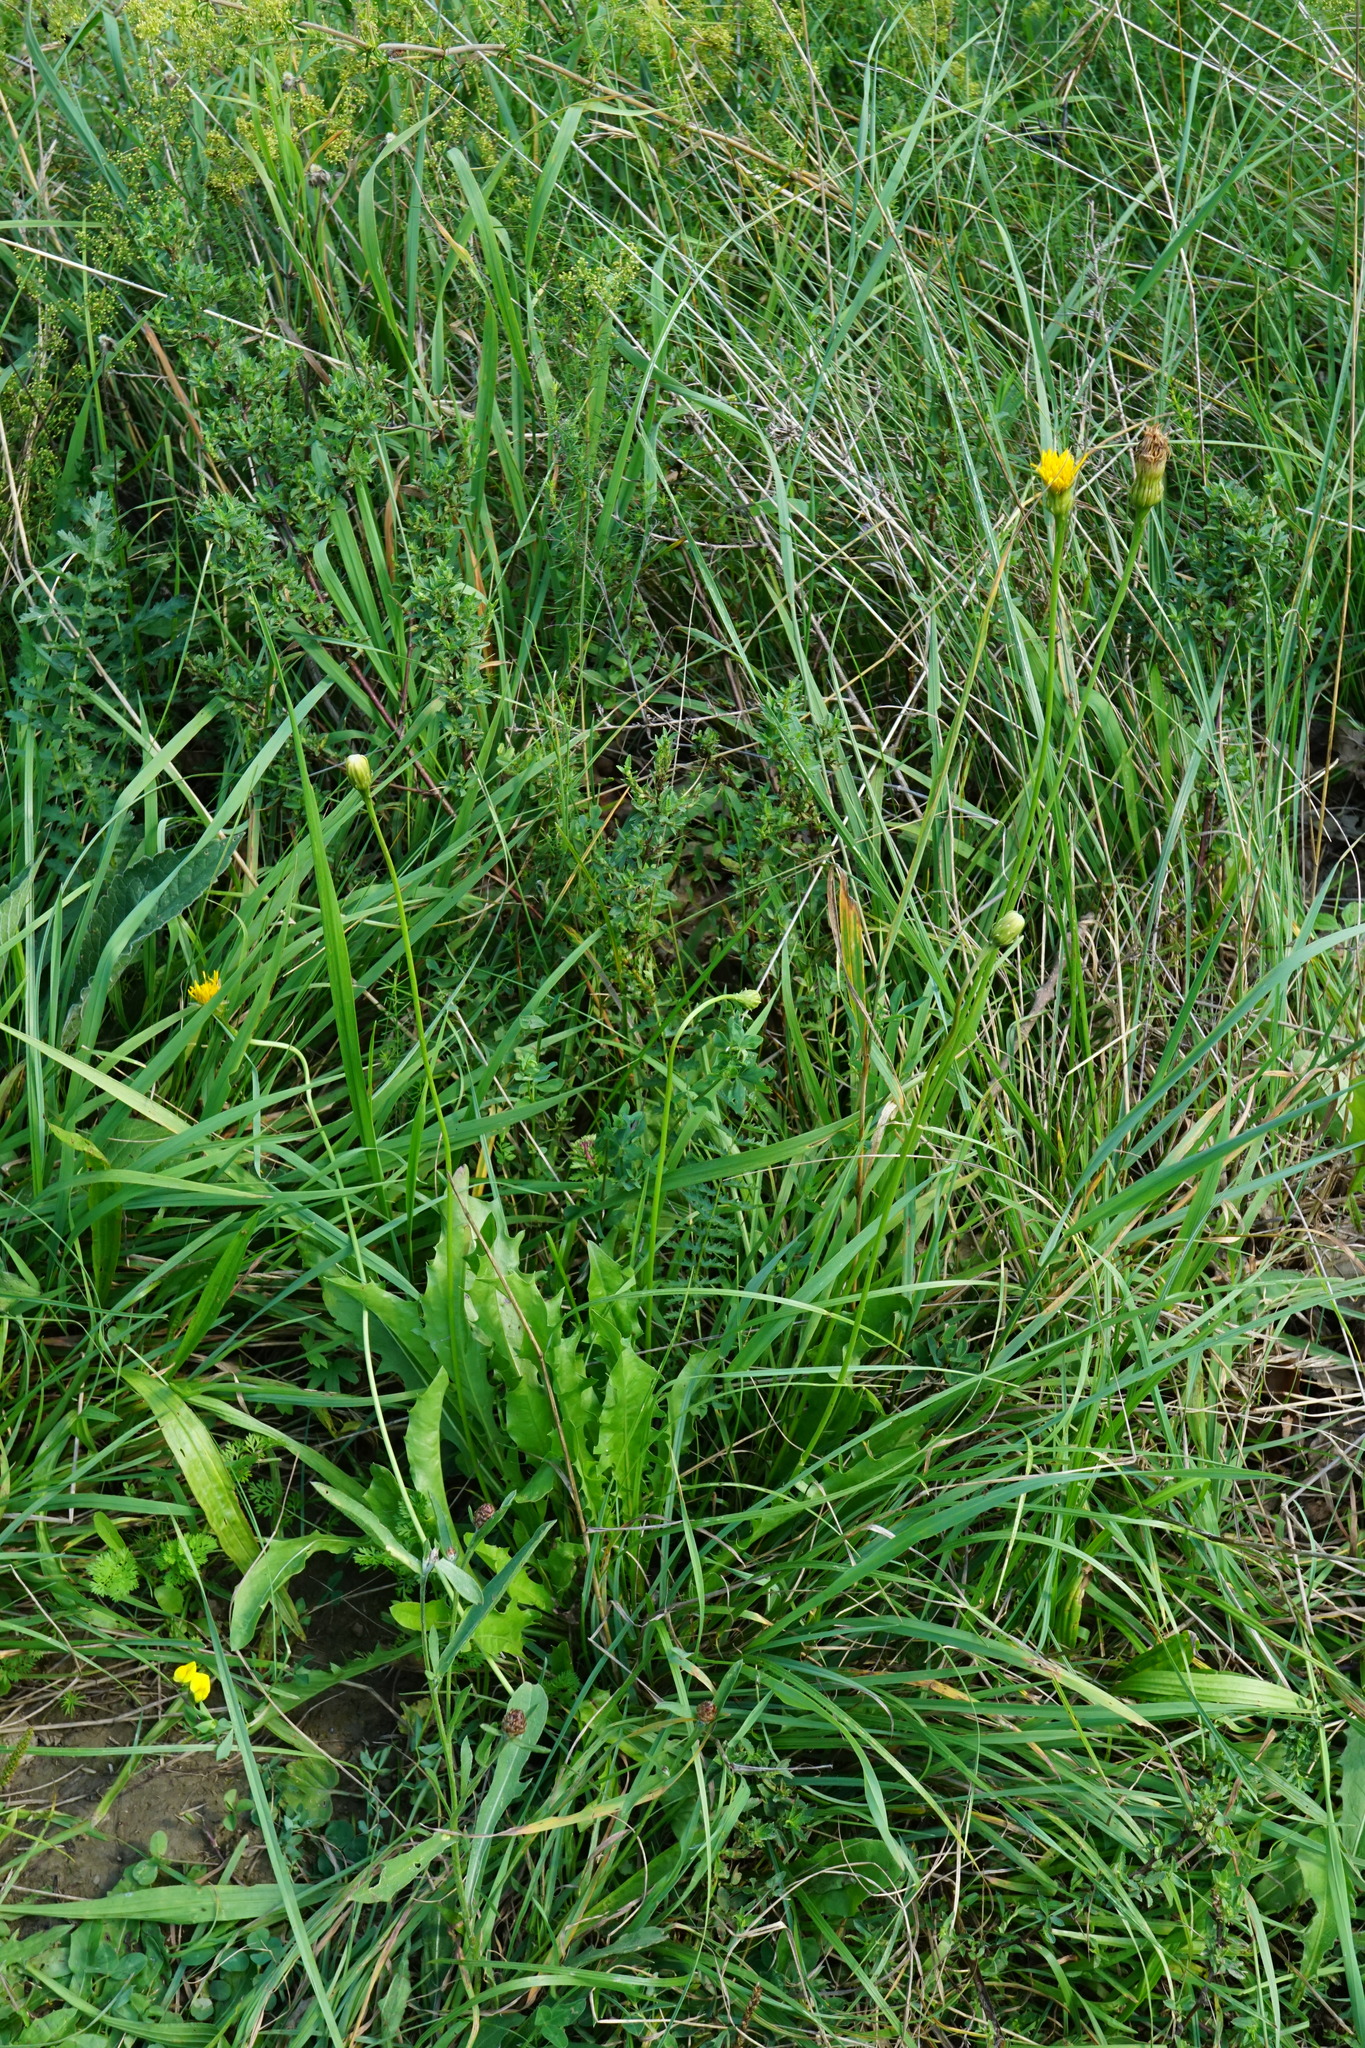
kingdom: Plantae
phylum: Tracheophyta
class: Magnoliopsida
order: Asterales
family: Asteraceae
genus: Leontodon
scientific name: Leontodon hispidus
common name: Rough hawkbit
